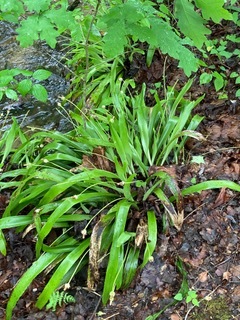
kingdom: Plantae
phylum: Tracheophyta
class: Liliopsida
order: Poales
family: Cyperaceae
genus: Carex
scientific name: Carex fraseriana
